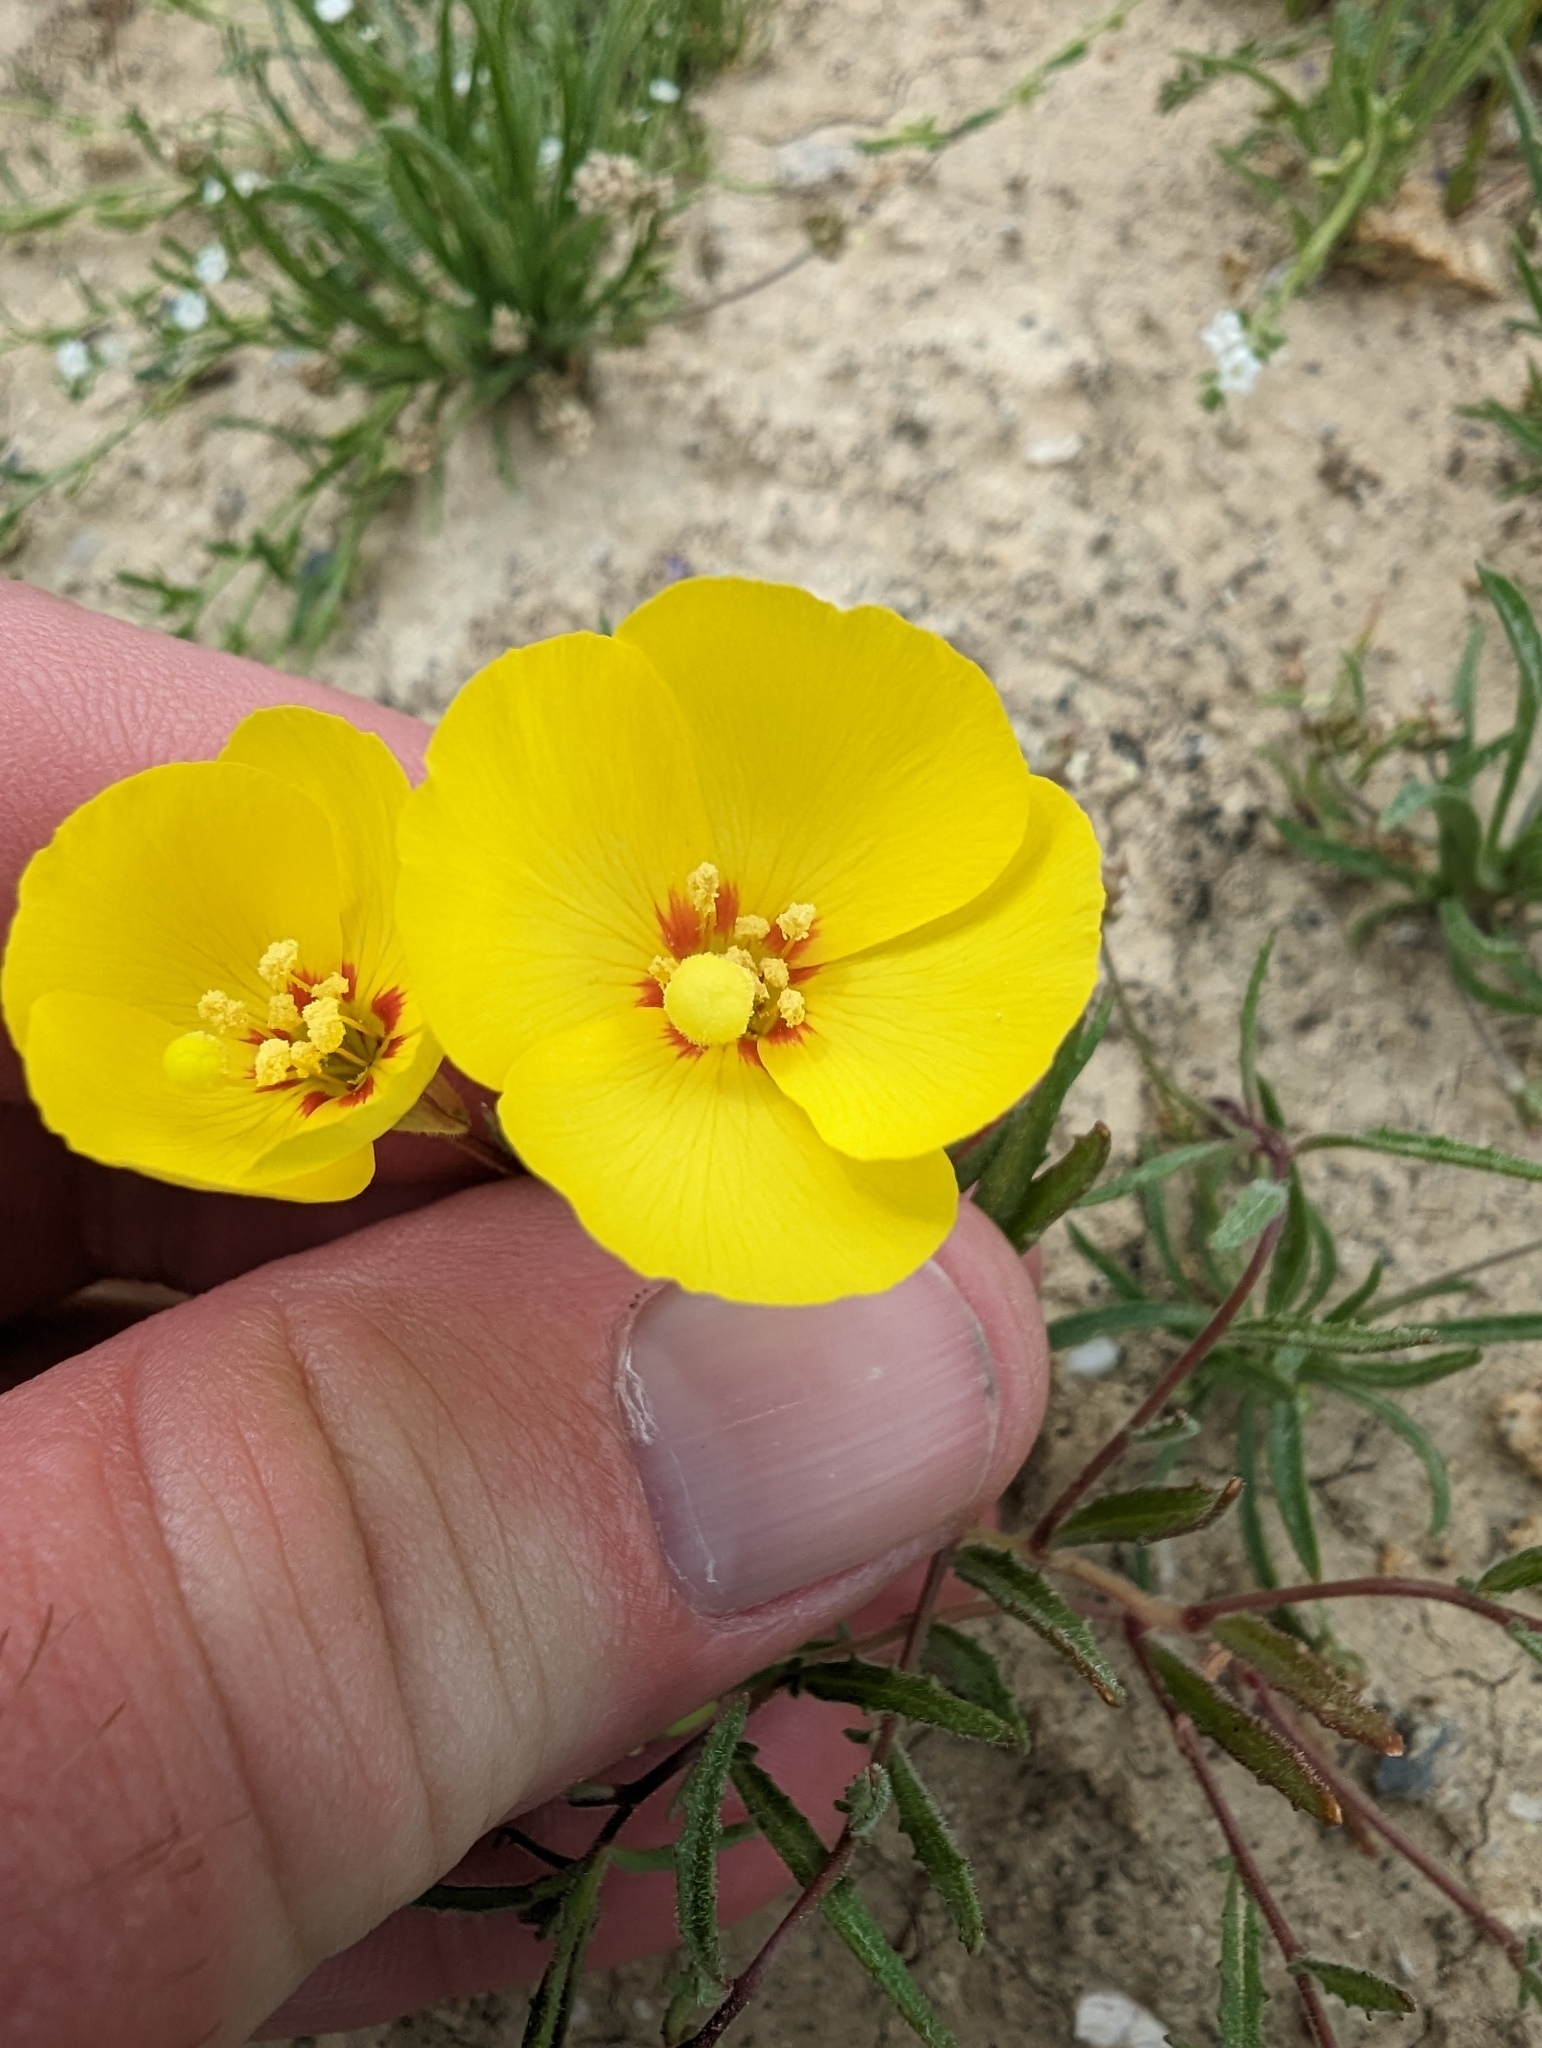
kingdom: Plantae
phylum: Tracheophyta
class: Magnoliopsida
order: Myrtales
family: Onagraceae
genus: Camissonia
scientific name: Camissonia campestris
